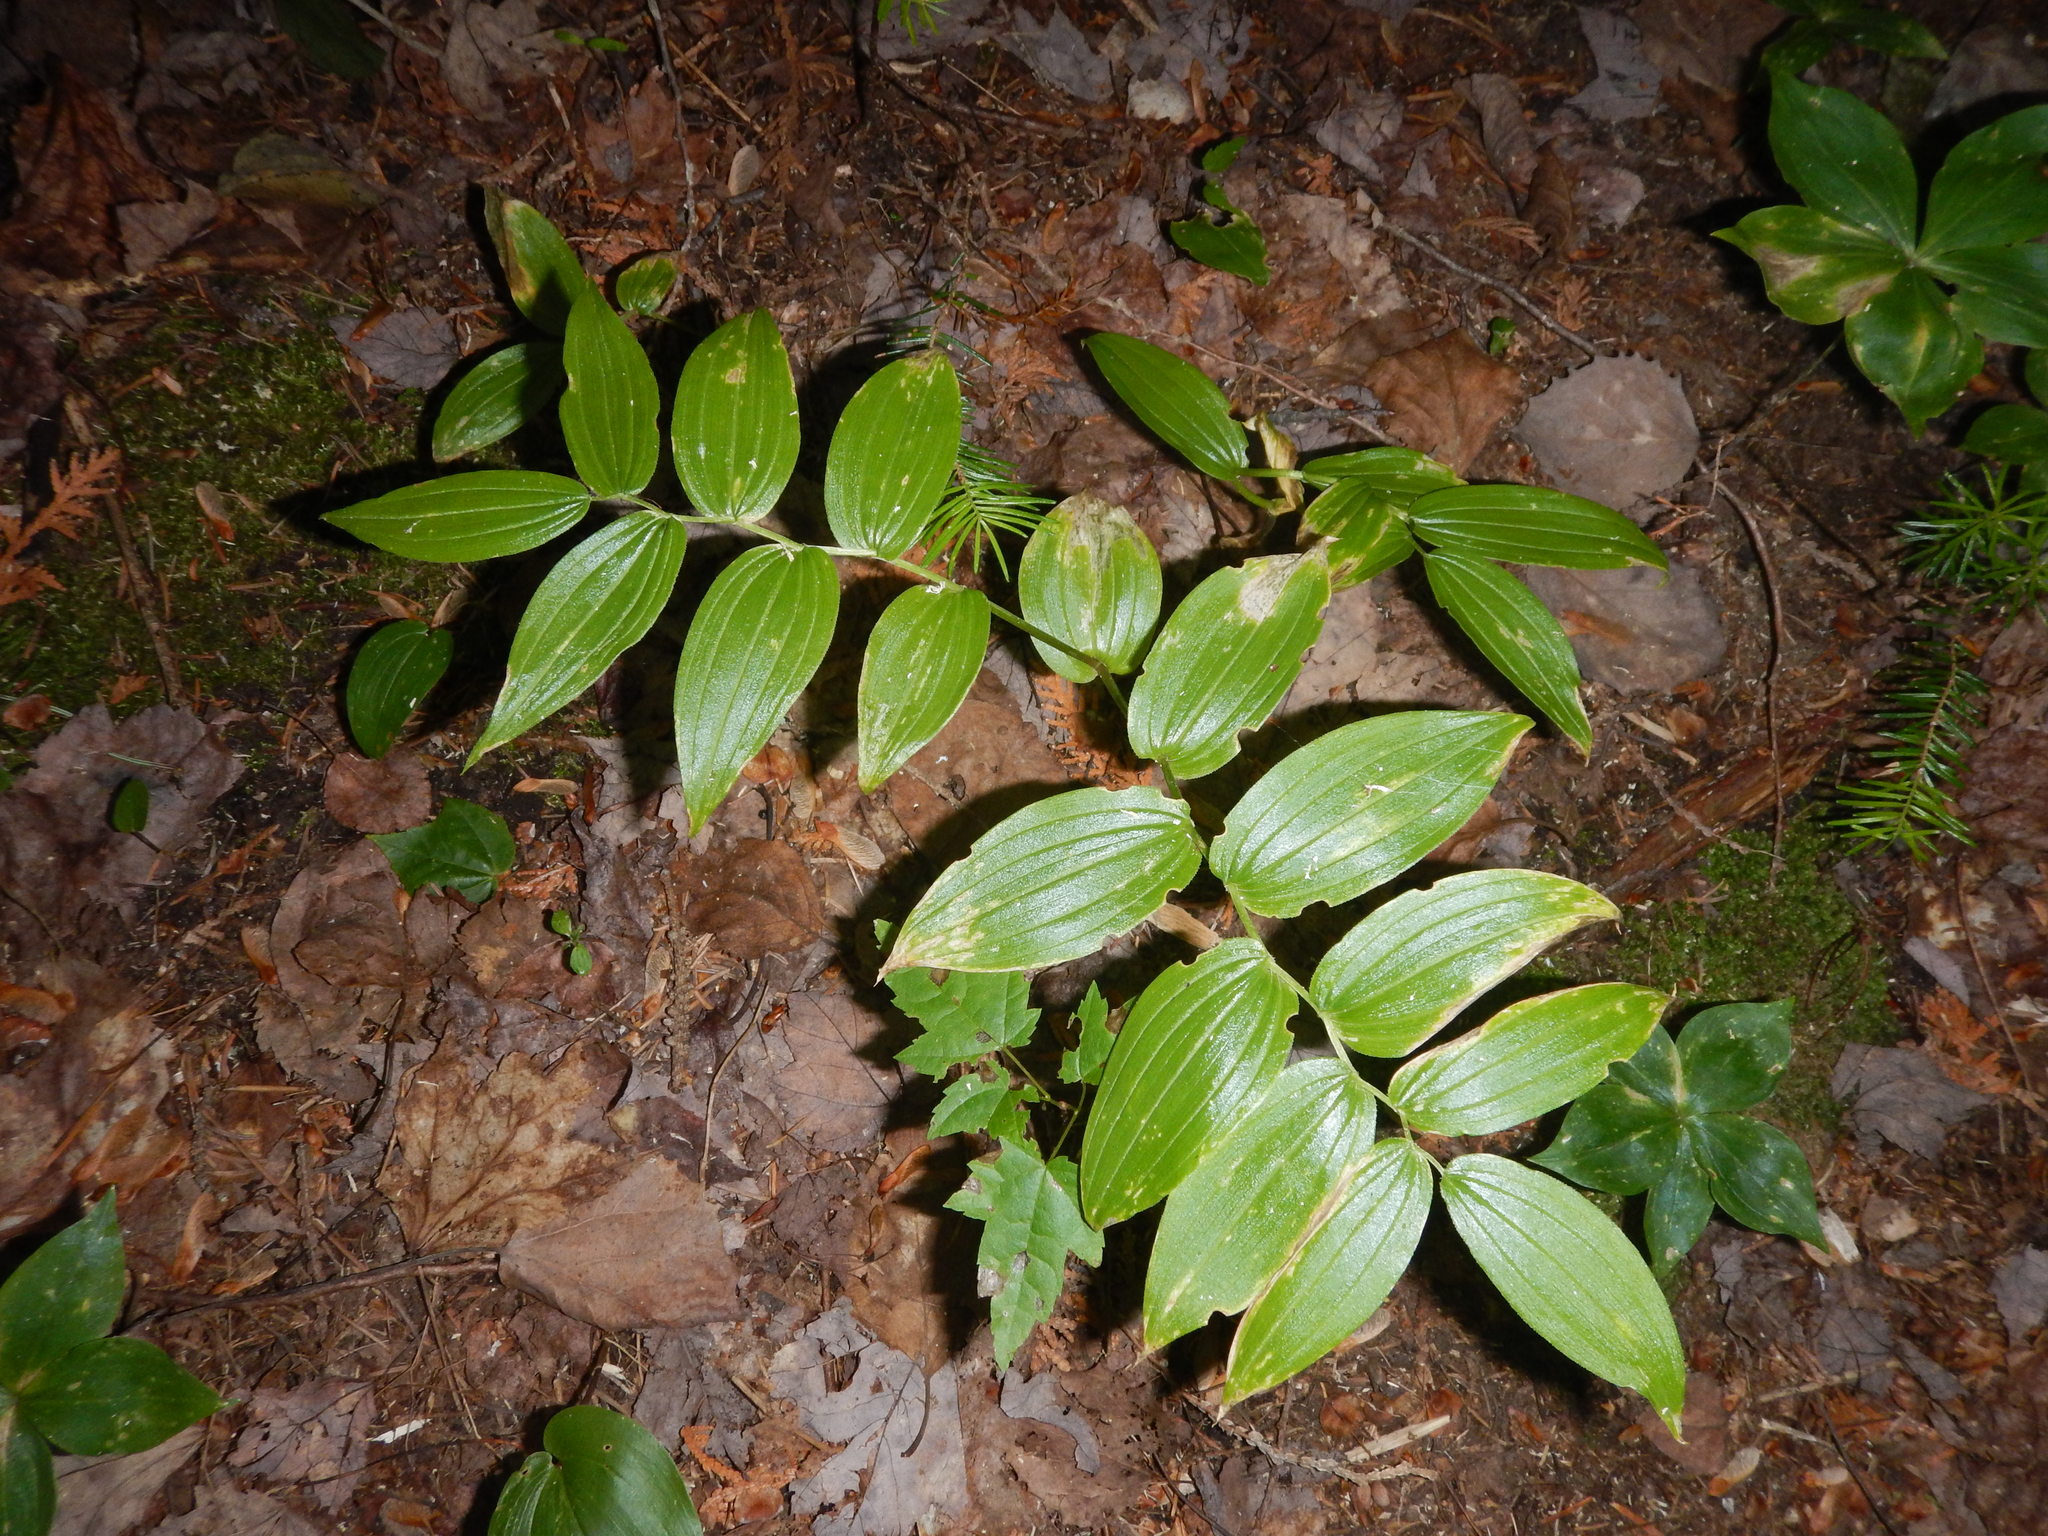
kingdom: Plantae
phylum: Tracheophyta
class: Liliopsida
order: Liliales
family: Liliaceae
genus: Streptopus
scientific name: Streptopus lanceolatus
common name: Rose mandarin
